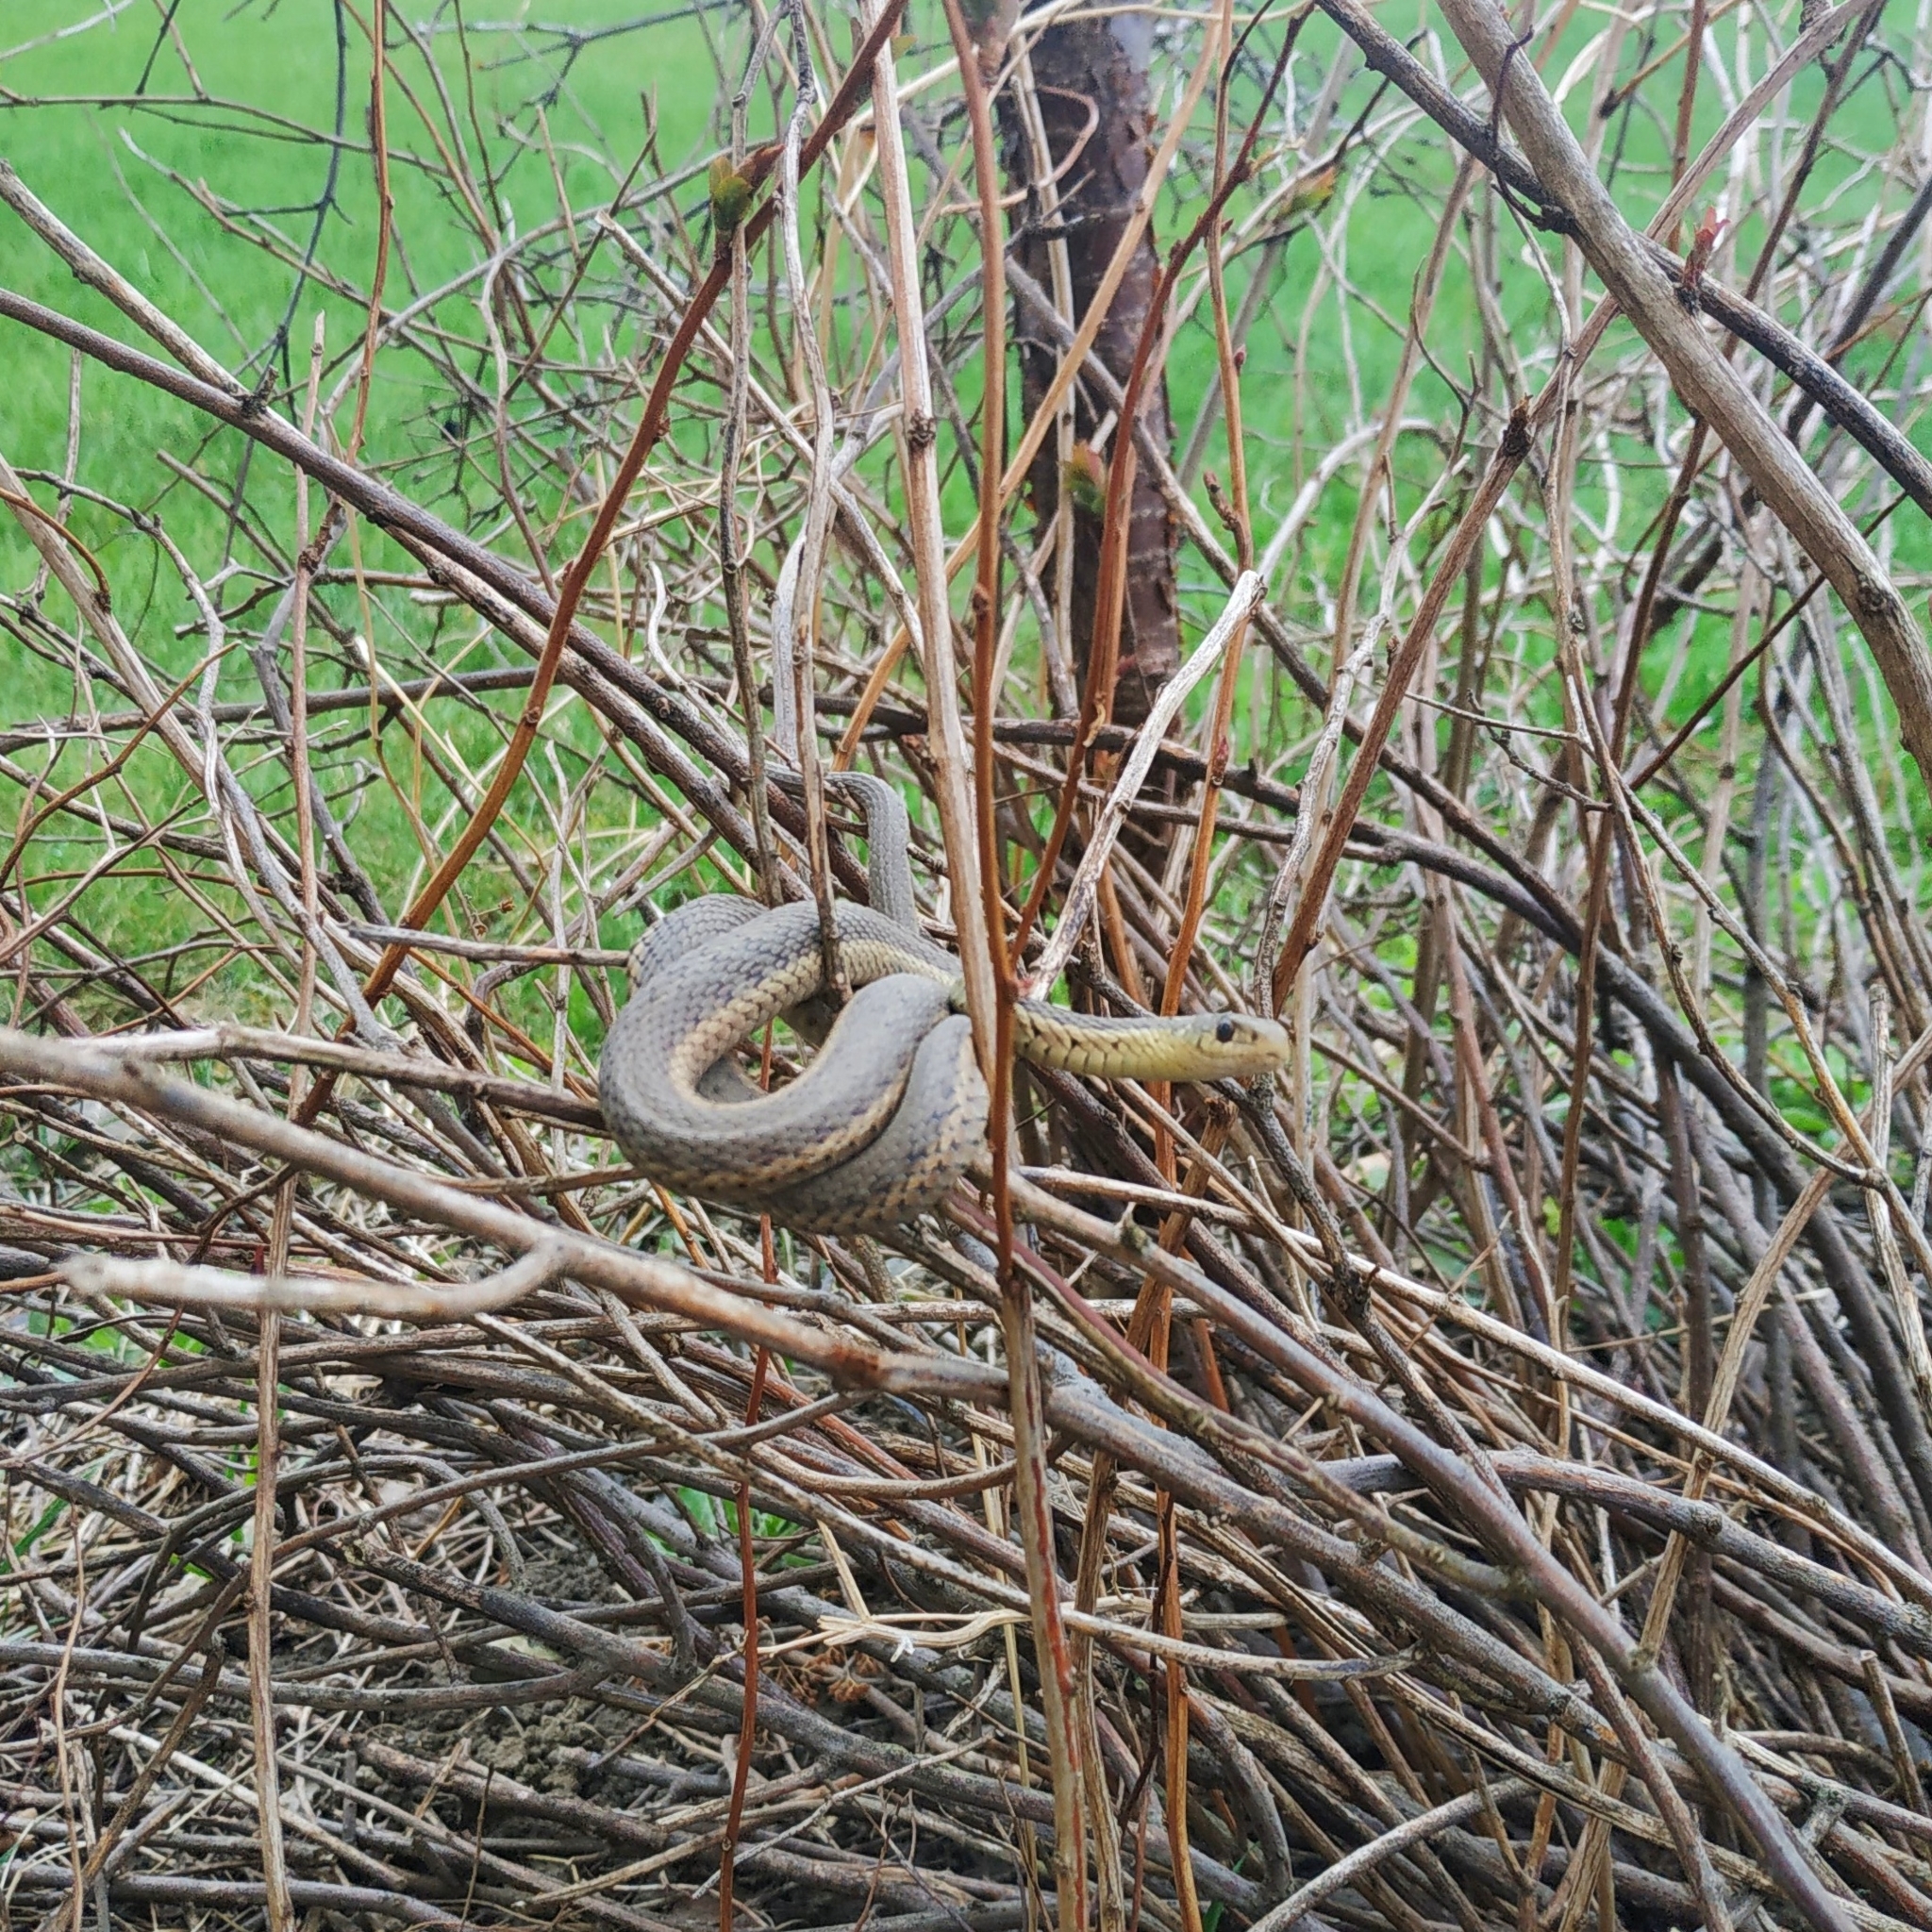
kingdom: Animalia
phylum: Chordata
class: Squamata
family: Colubridae
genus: Thamnophis
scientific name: Thamnophis sirtalis
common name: Common garter snake
